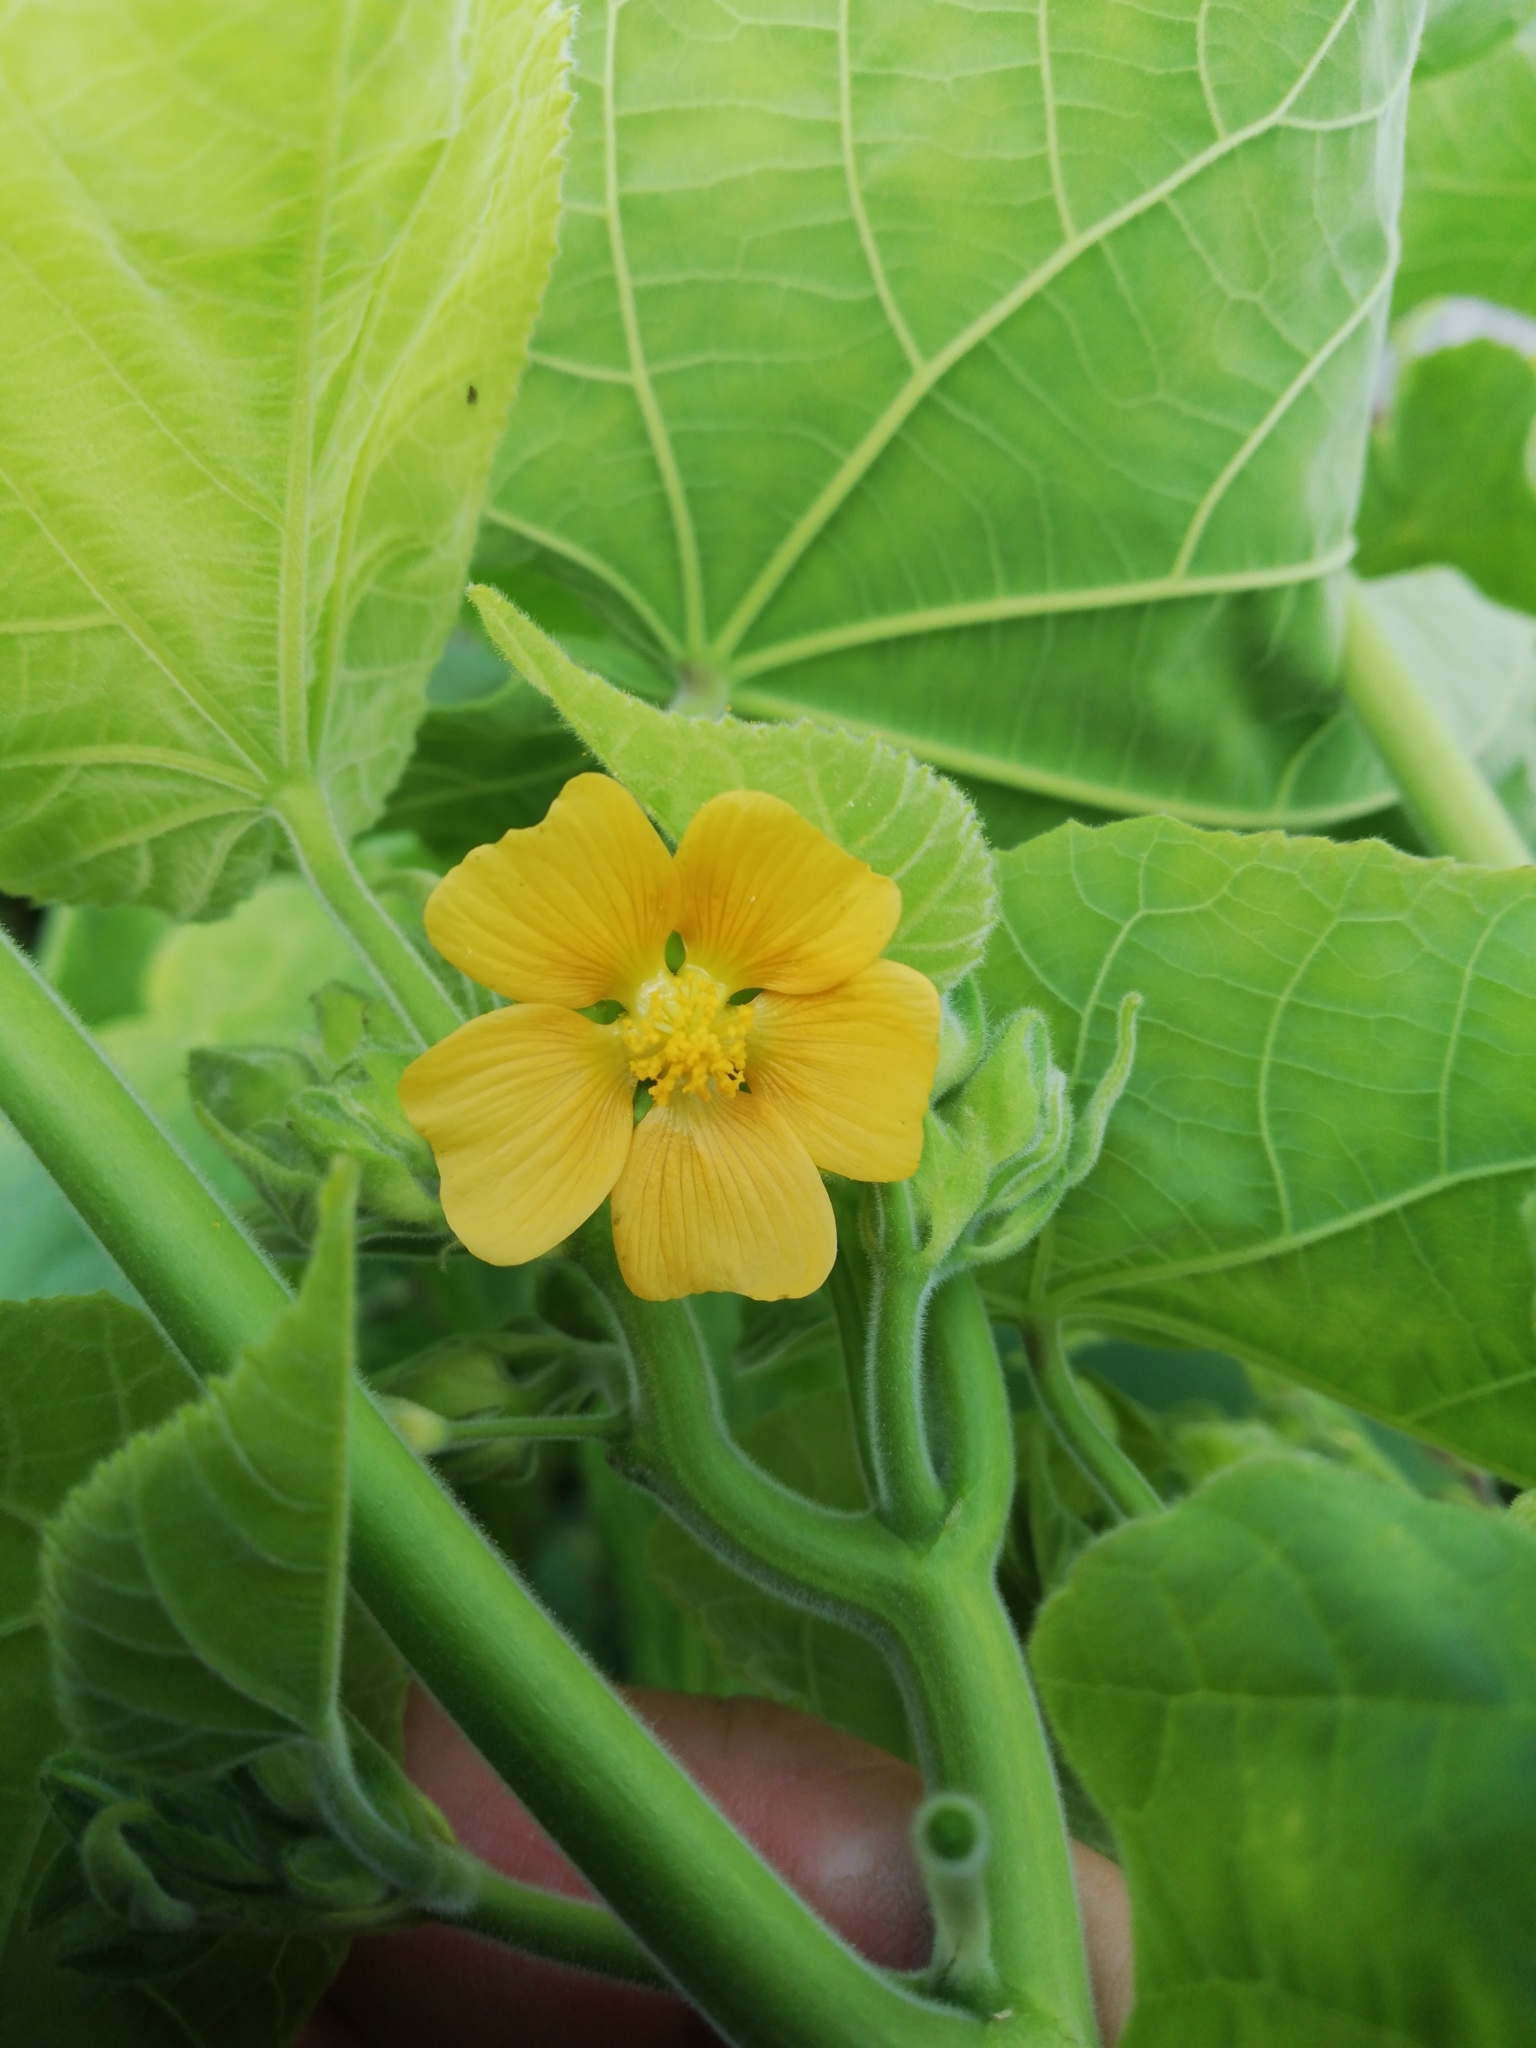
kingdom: Plantae
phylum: Tracheophyta
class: Magnoliopsida
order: Malvales
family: Malvaceae
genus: Abutilon
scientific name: Abutilon theophrasti
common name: Velvetleaf
